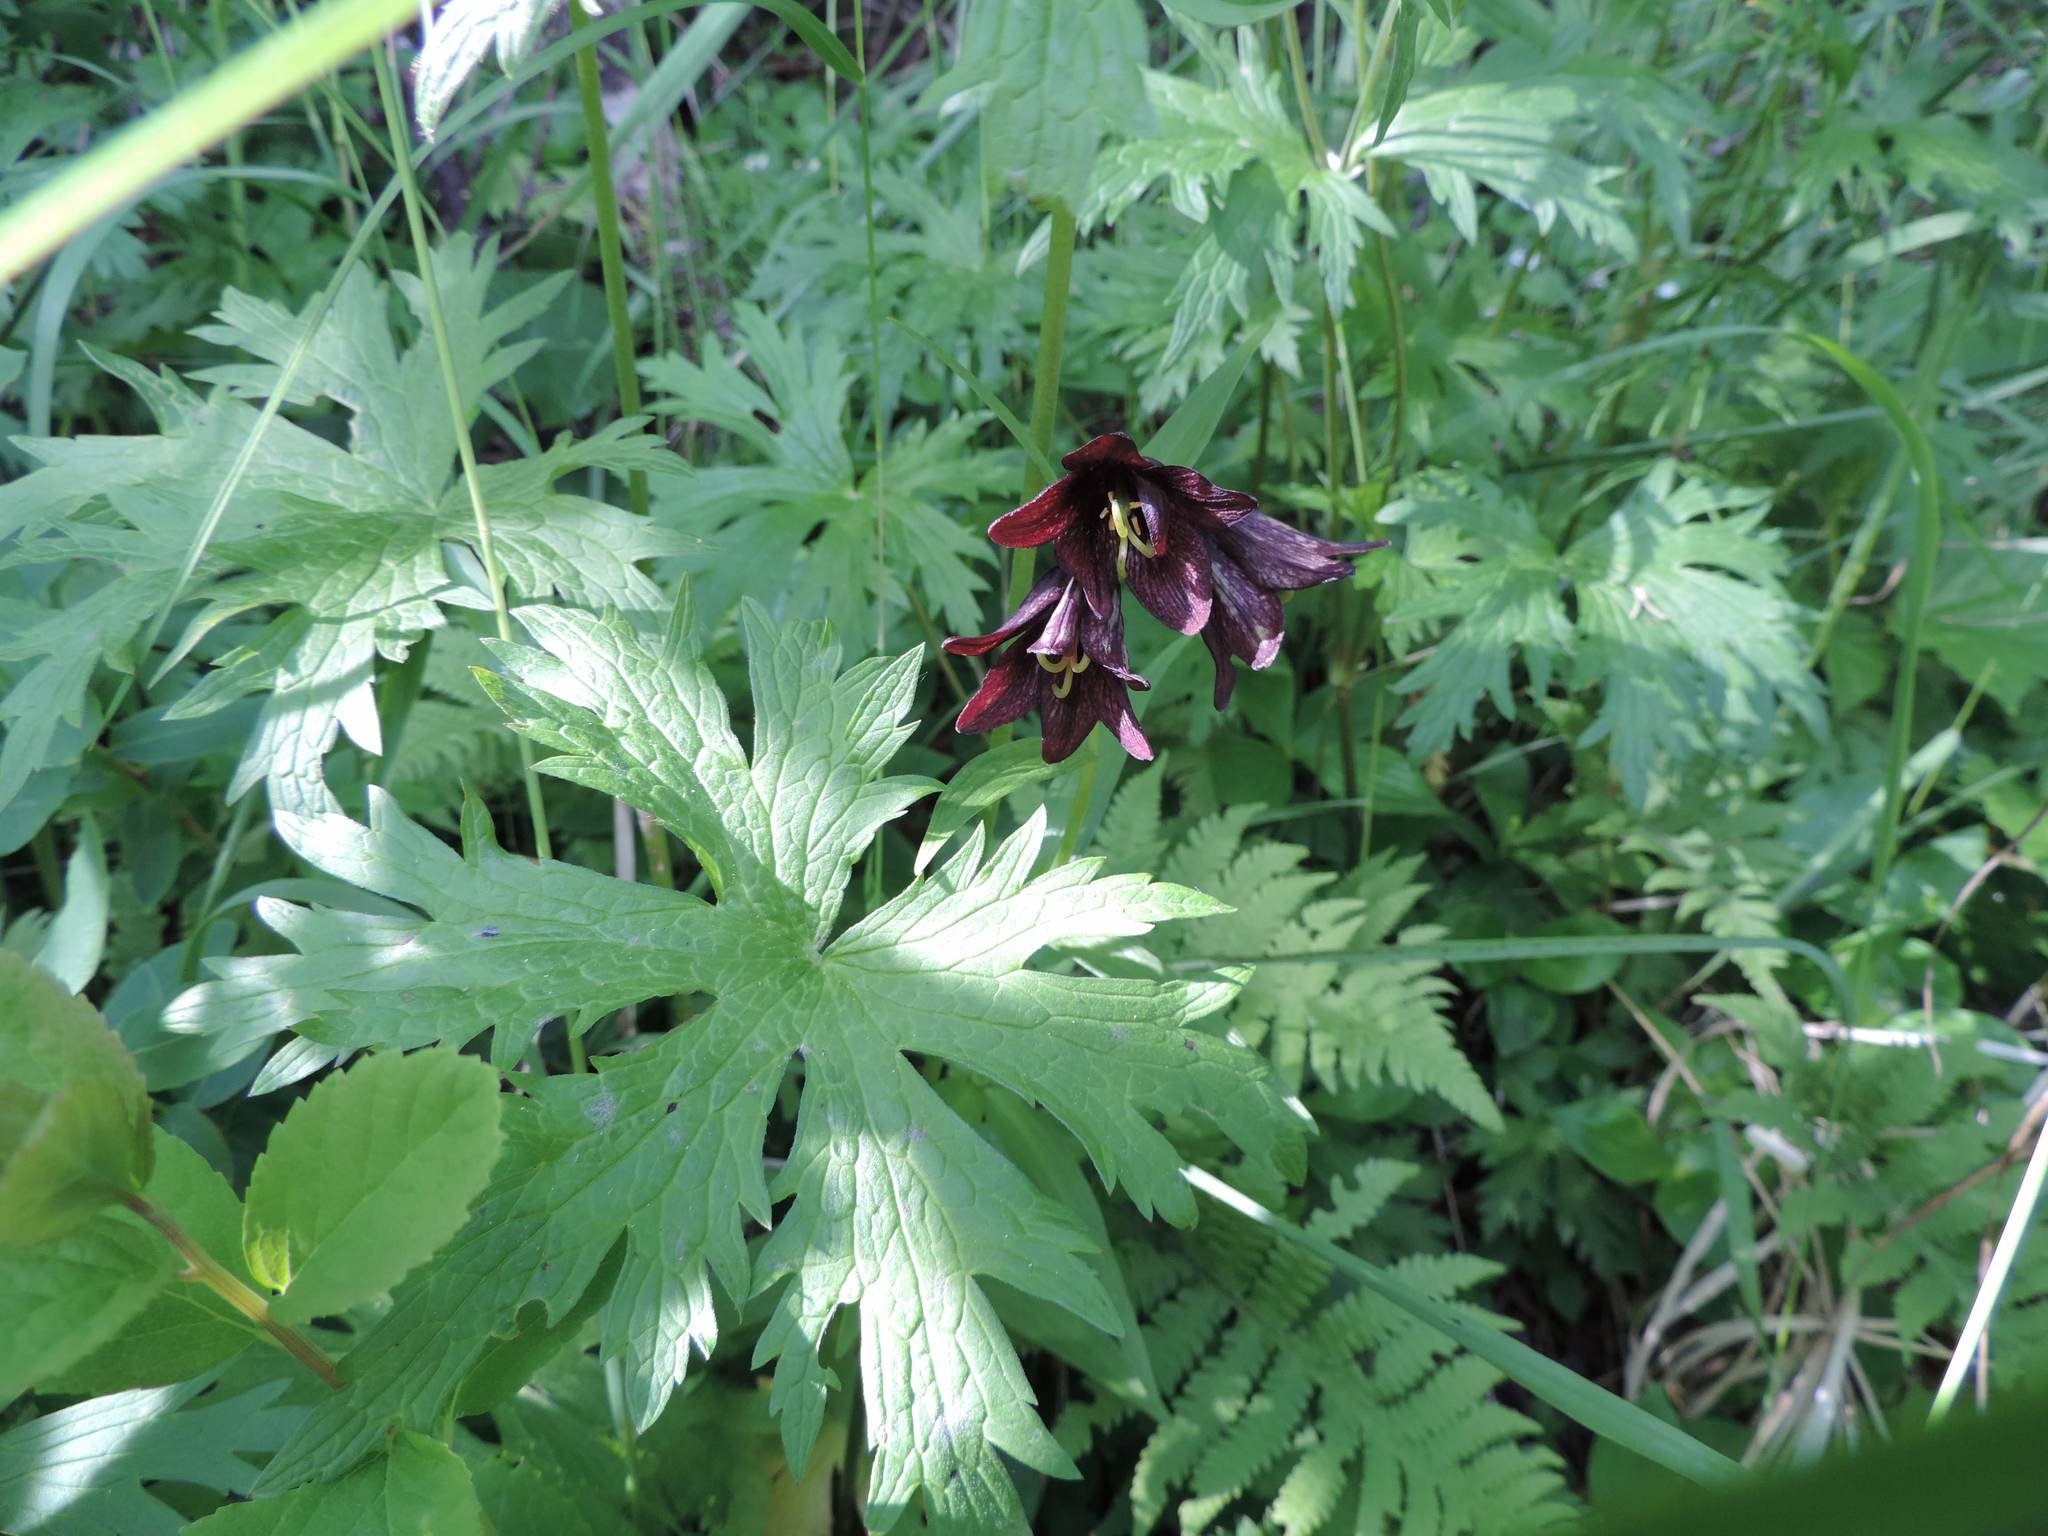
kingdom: Plantae
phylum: Tracheophyta
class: Liliopsida
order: Liliales
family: Liliaceae
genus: Fritillaria
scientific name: Fritillaria camschatcensis
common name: Kamchatka fritillary
